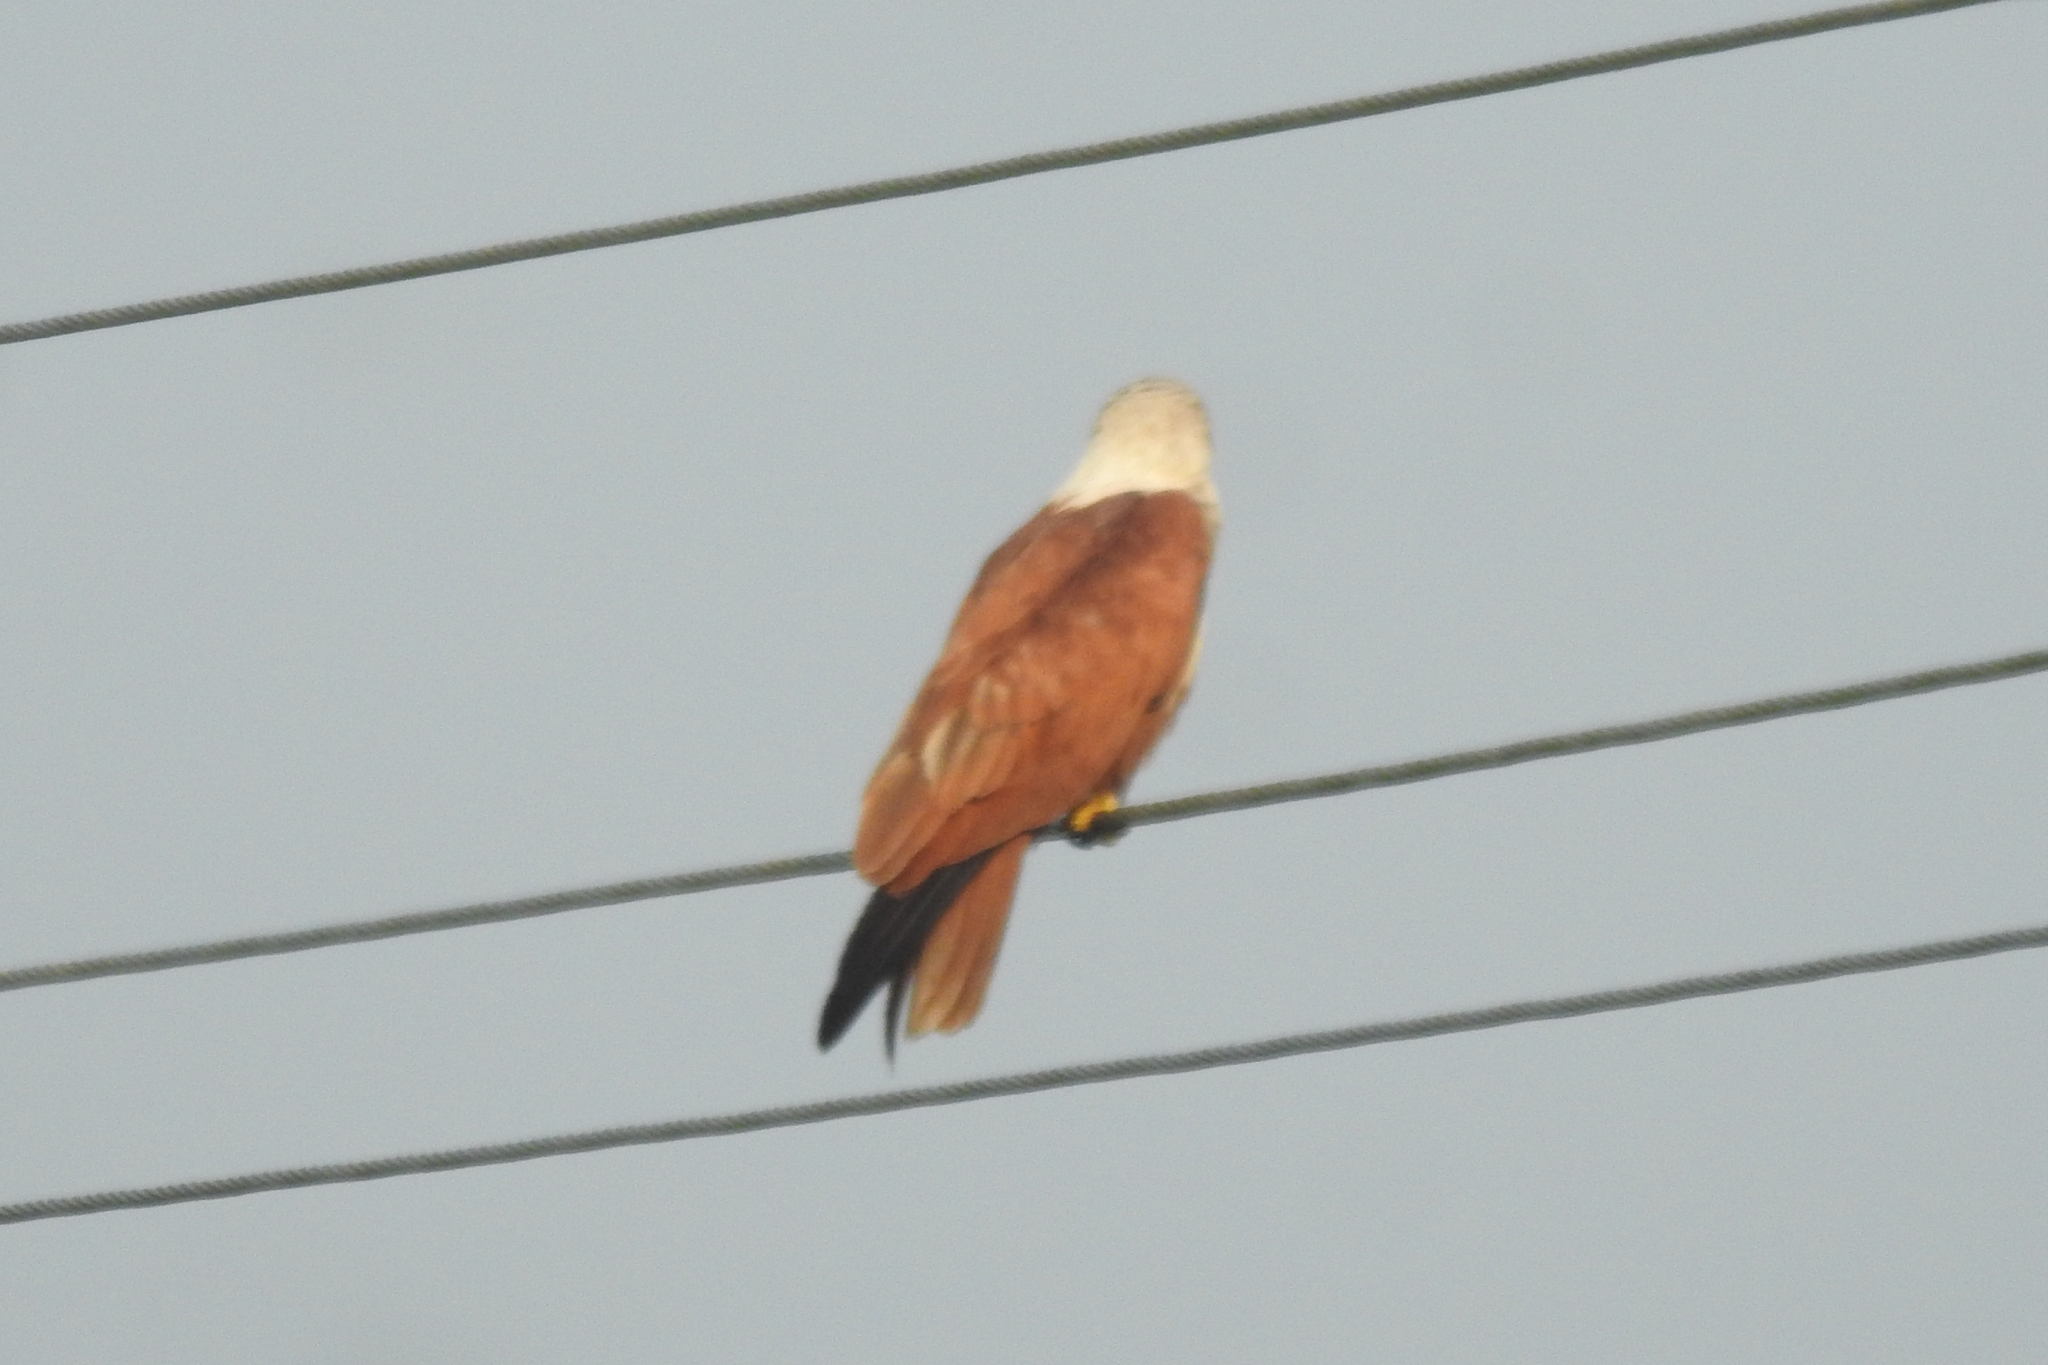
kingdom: Animalia
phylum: Chordata
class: Aves
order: Accipitriformes
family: Accipitridae
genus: Haliastur
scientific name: Haliastur indus
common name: Brahminy kite
